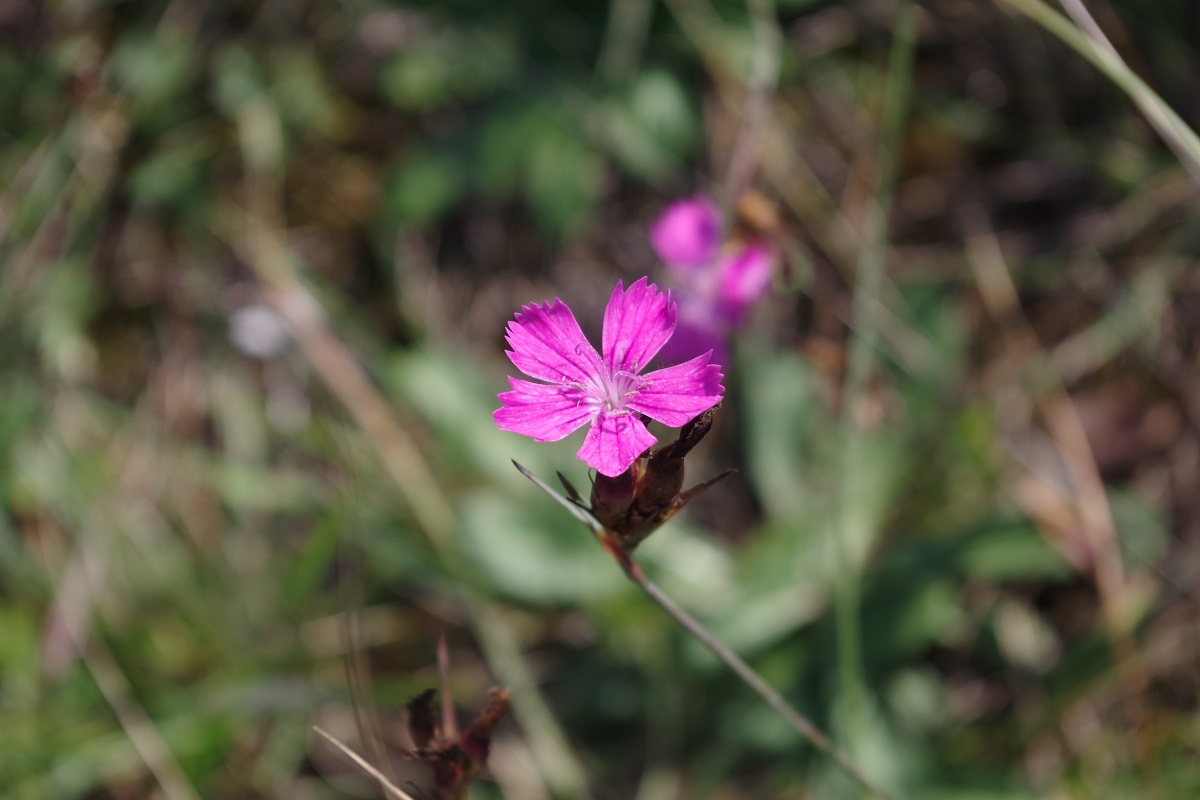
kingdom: Plantae
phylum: Tracheophyta
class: Magnoliopsida
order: Caryophyllales
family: Caryophyllaceae
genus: Dianthus
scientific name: Dianthus carthusianorum
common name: Carthusian pink
